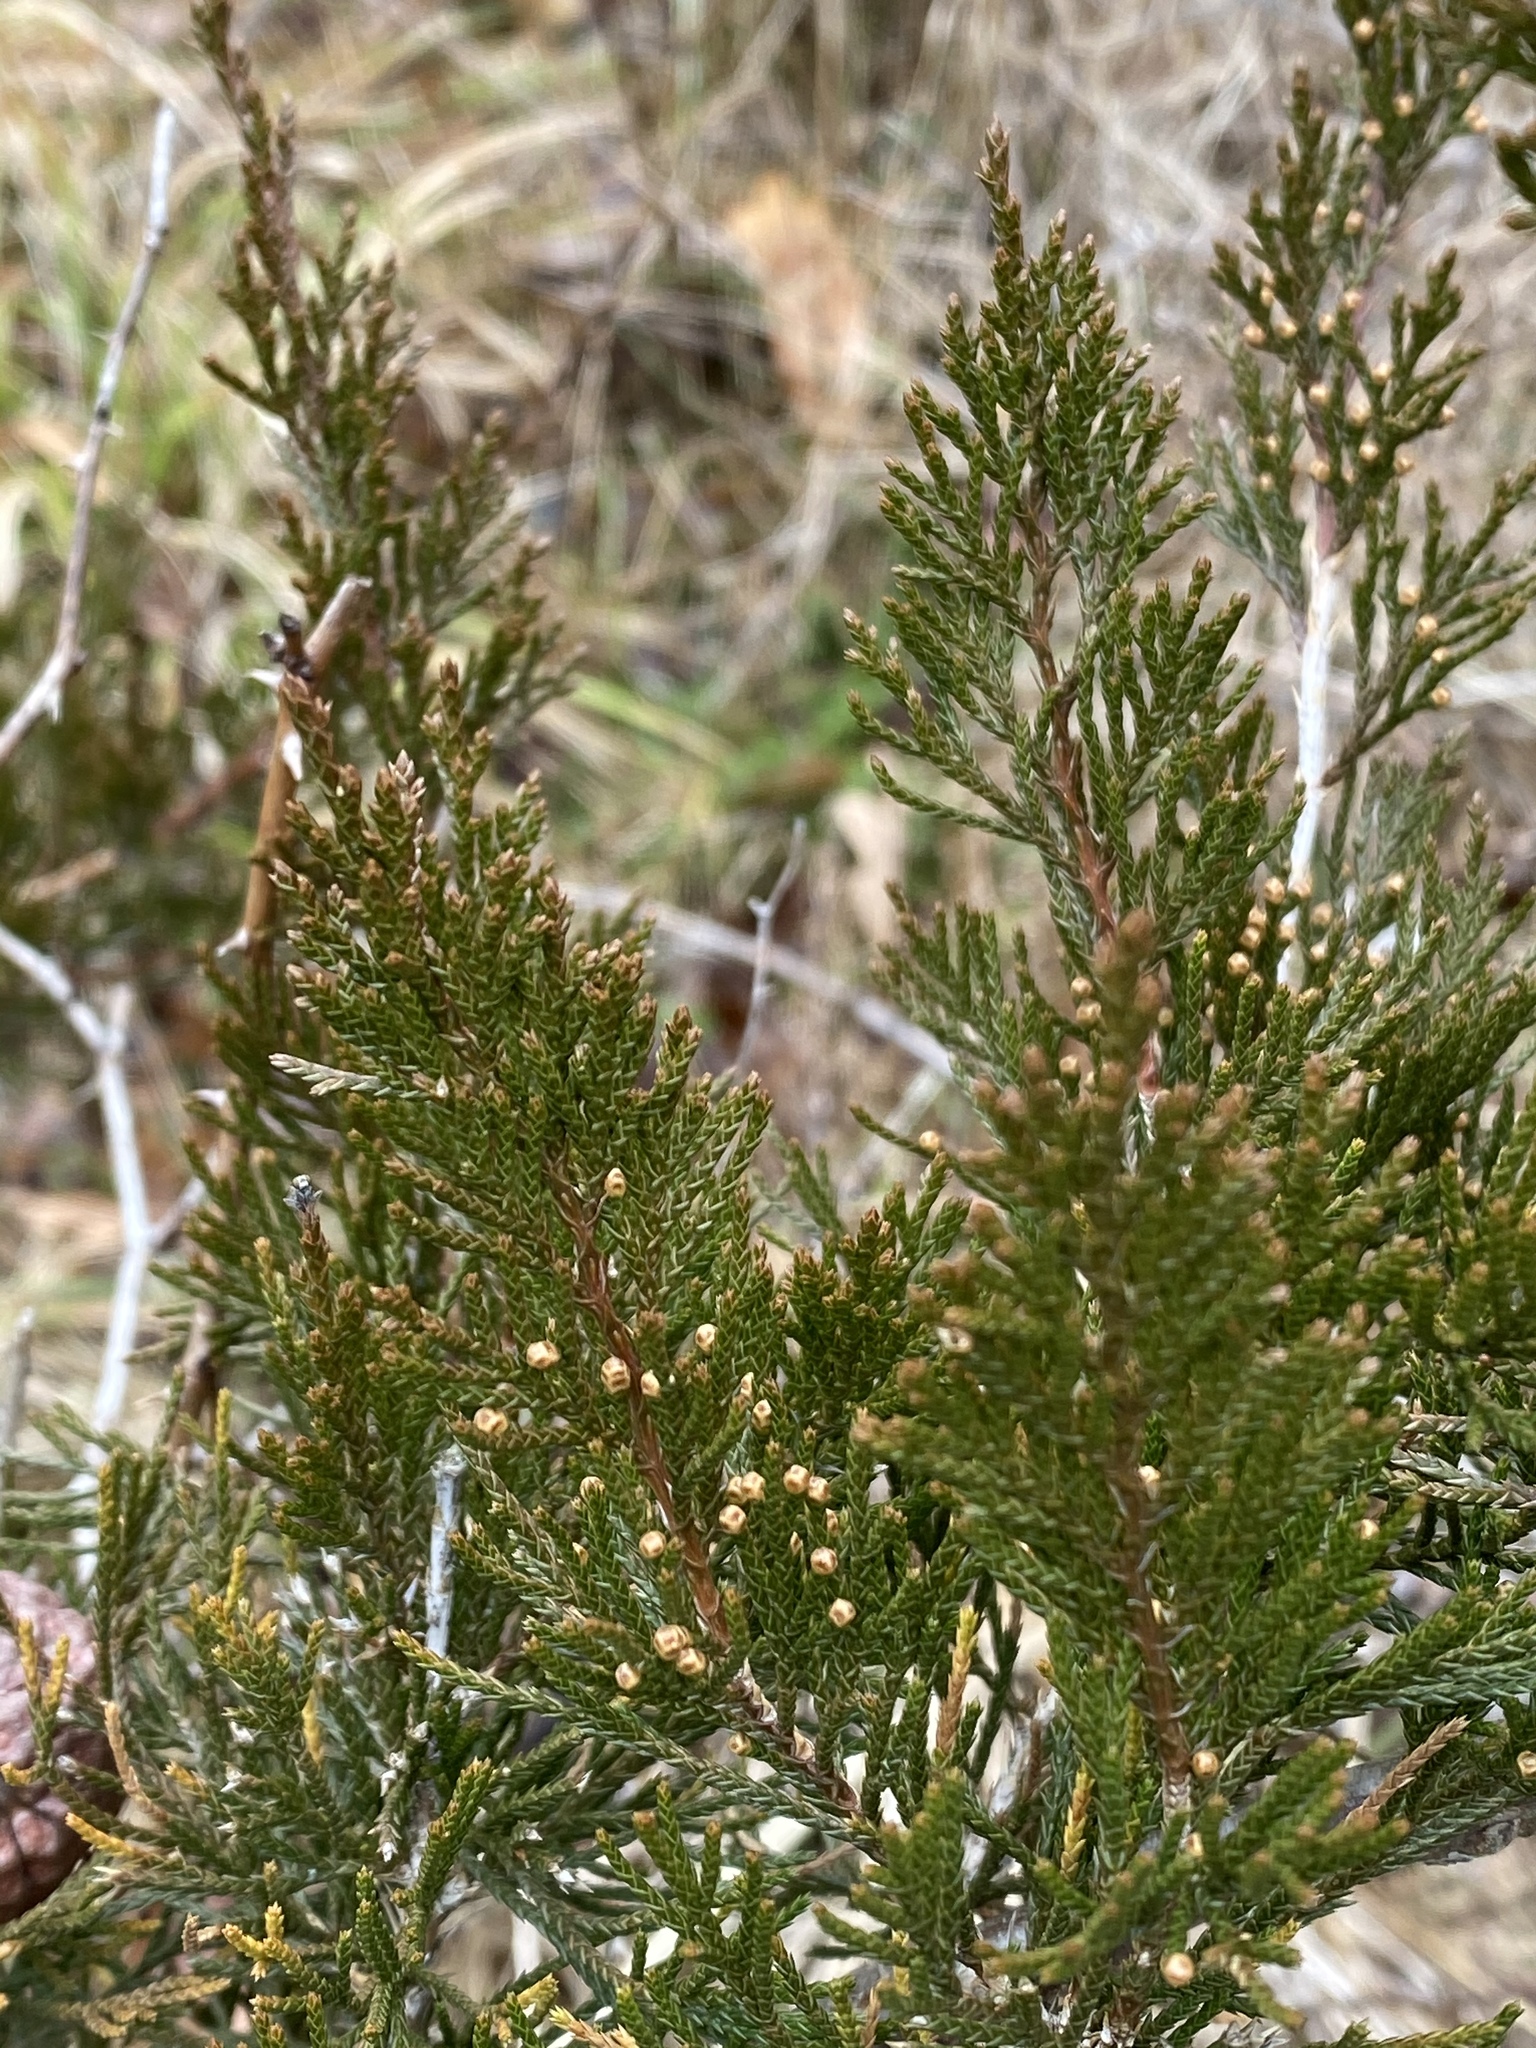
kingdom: Plantae
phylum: Tracheophyta
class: Pinopsida
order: Pinales
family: Cupressaceae
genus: Juniperus
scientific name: Juniperus virginiana
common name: Red juniper
